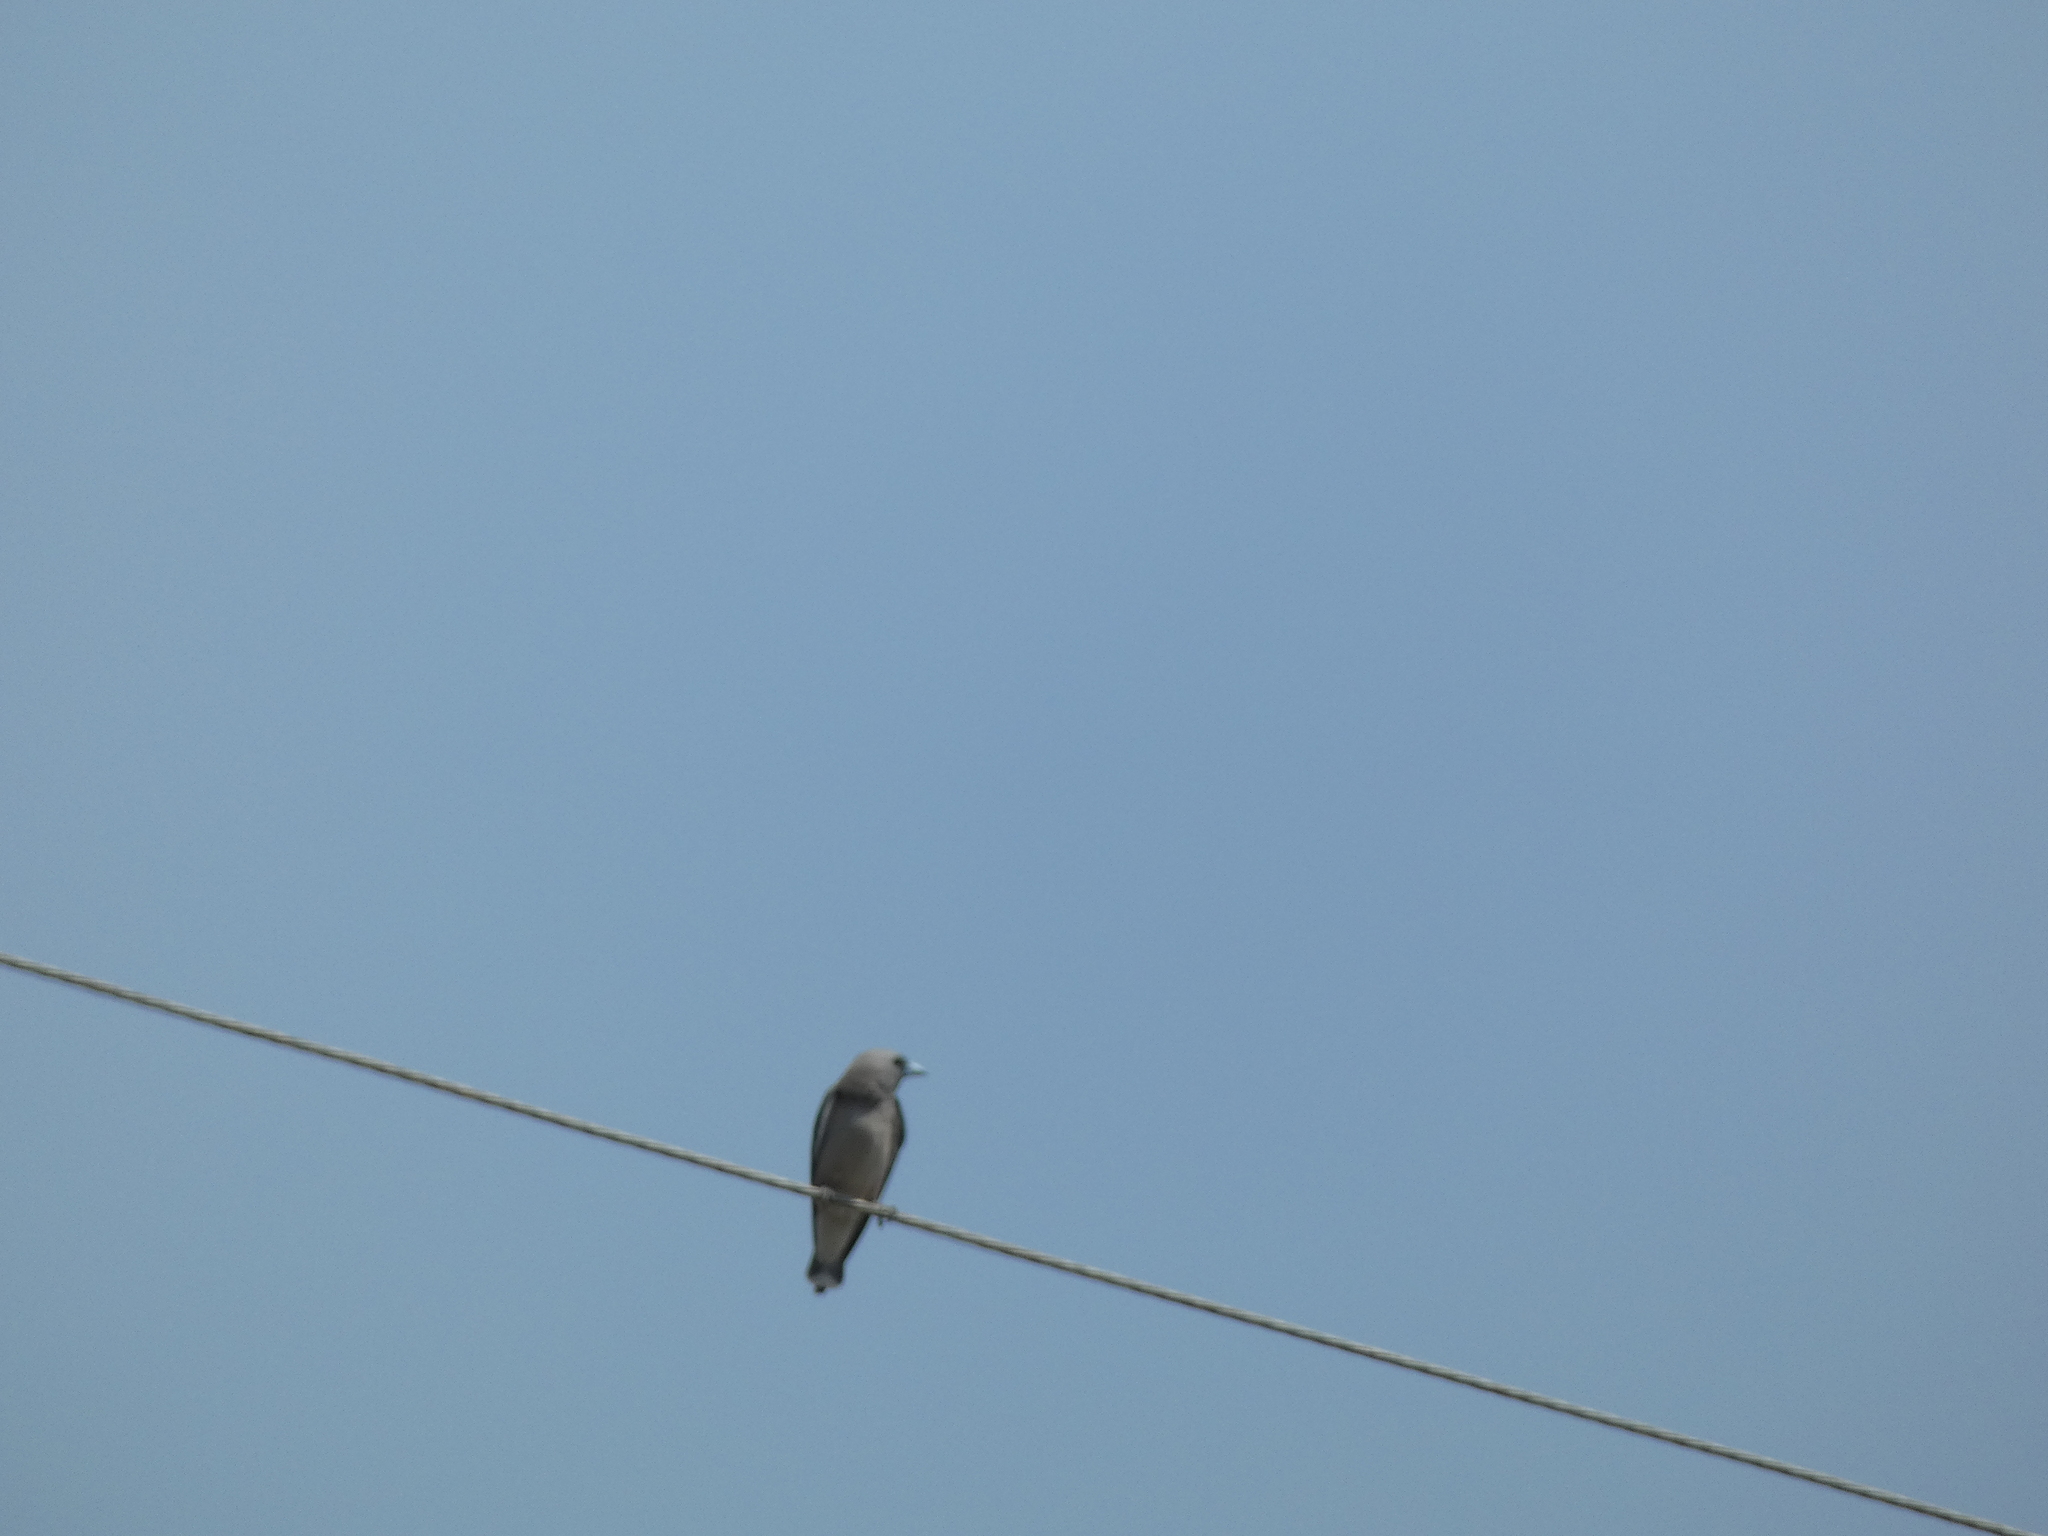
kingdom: Animalia
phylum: Chordata
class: Aves
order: Passeriformes
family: Artamidae
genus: Artamus
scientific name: Artamus fuscus
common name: Ashy woodswallow
